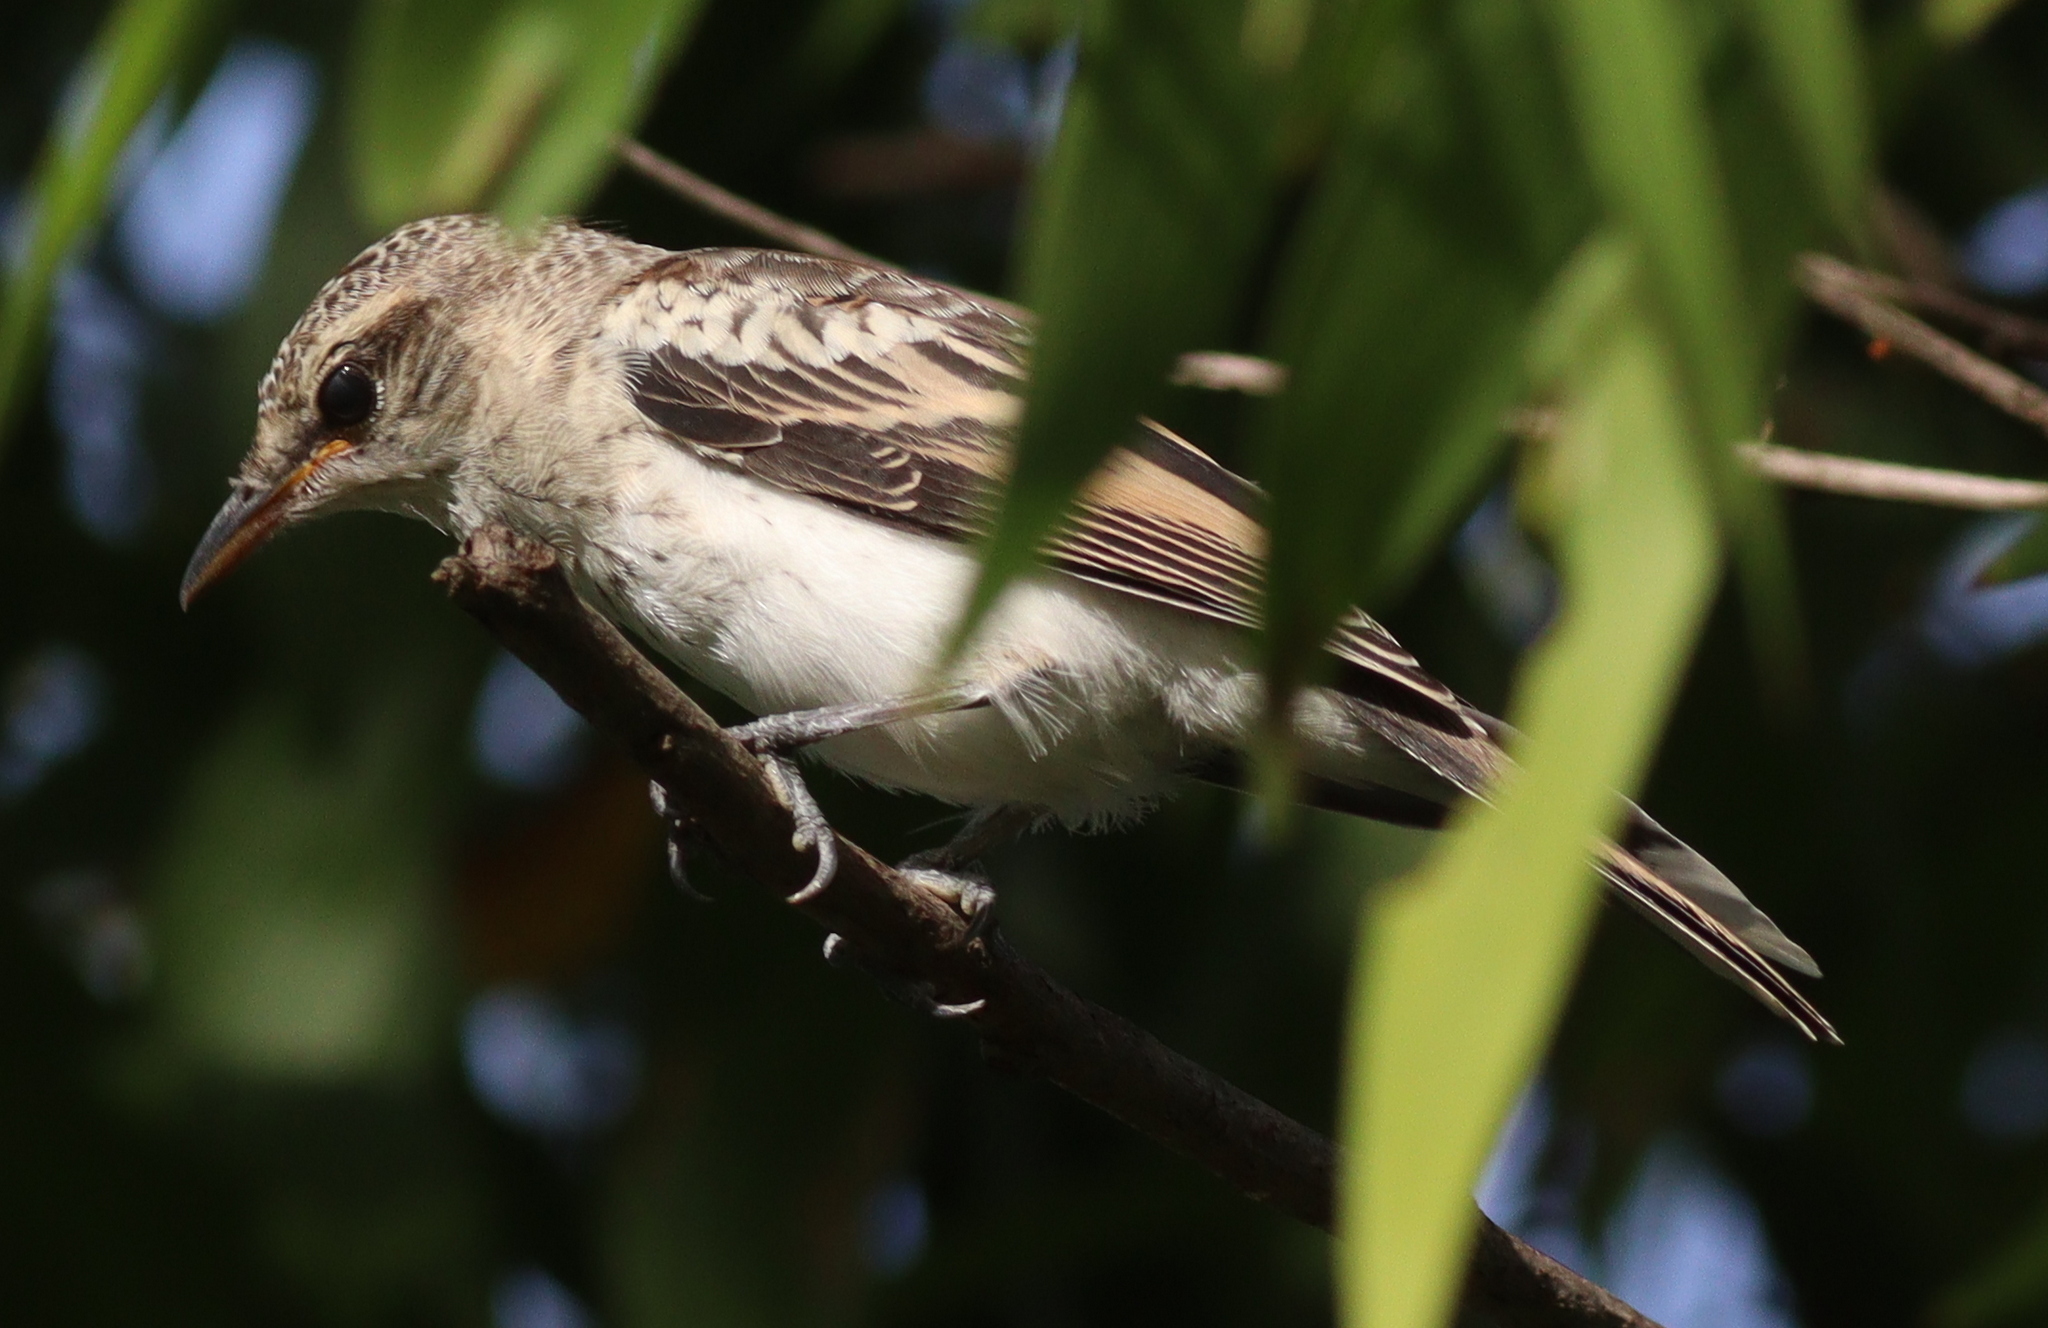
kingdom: Animalia
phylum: Chordata
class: Aves
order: Passeriformes
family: Campephagidae
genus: Lalage
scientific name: Lalage sueurii
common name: White-shouldered triller
